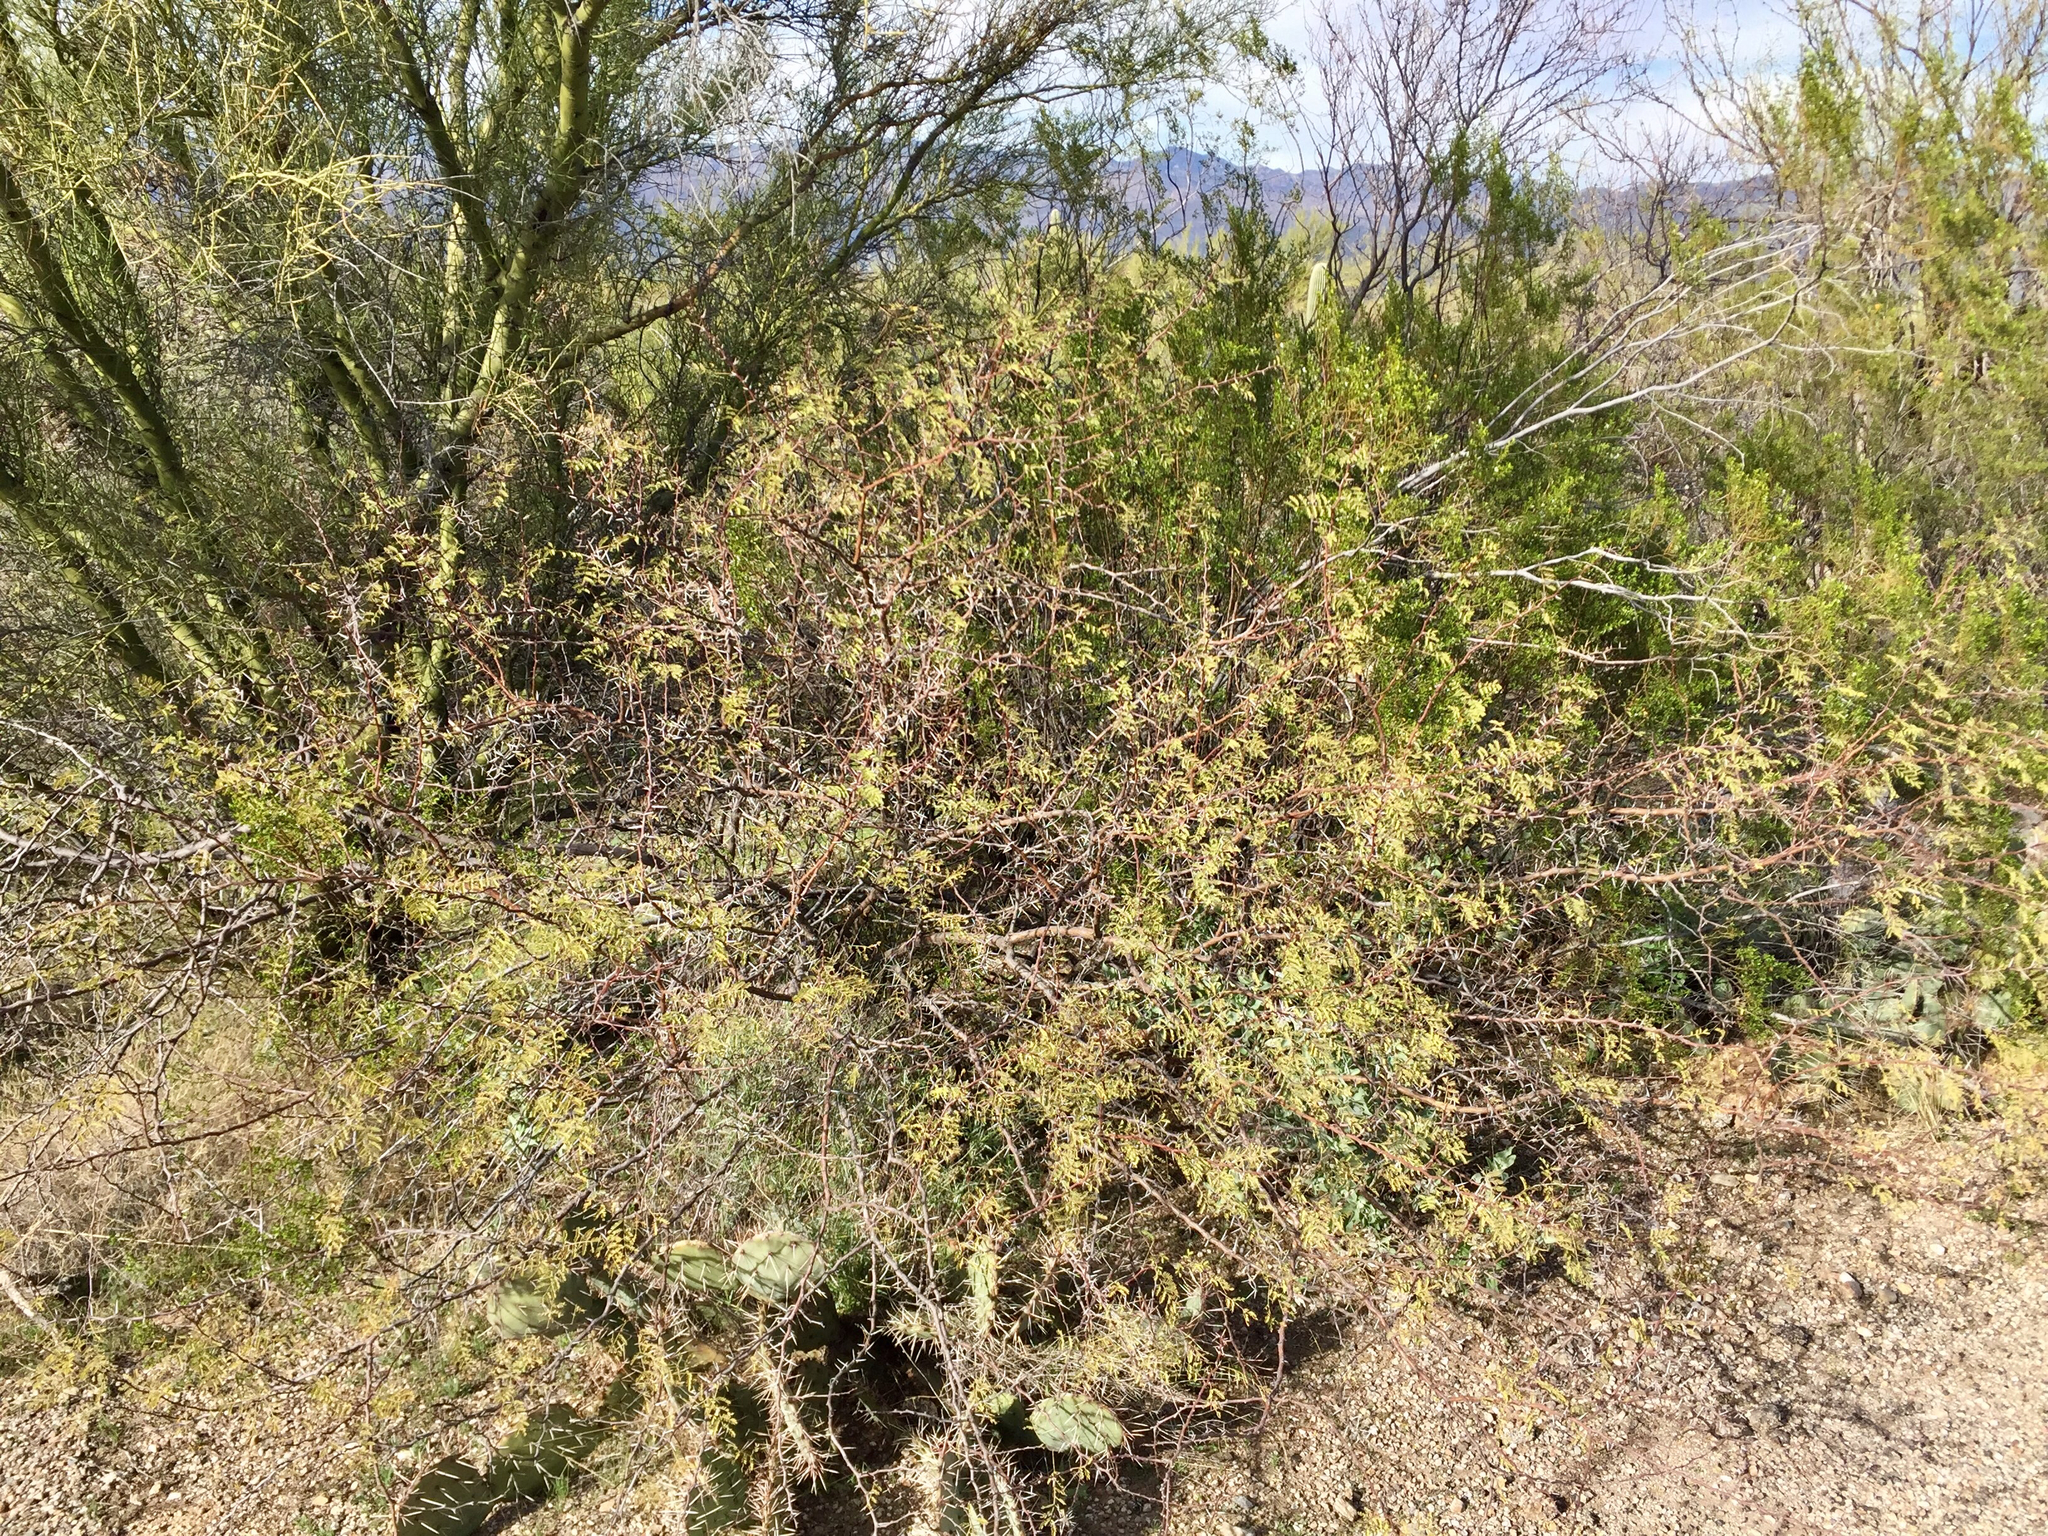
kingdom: Plantae
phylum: Tracheophyta
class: Magnoliopsida
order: Fabales
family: Fabaceae
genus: Vachellia
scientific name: Vachellia constricta
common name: Mescat acacia
